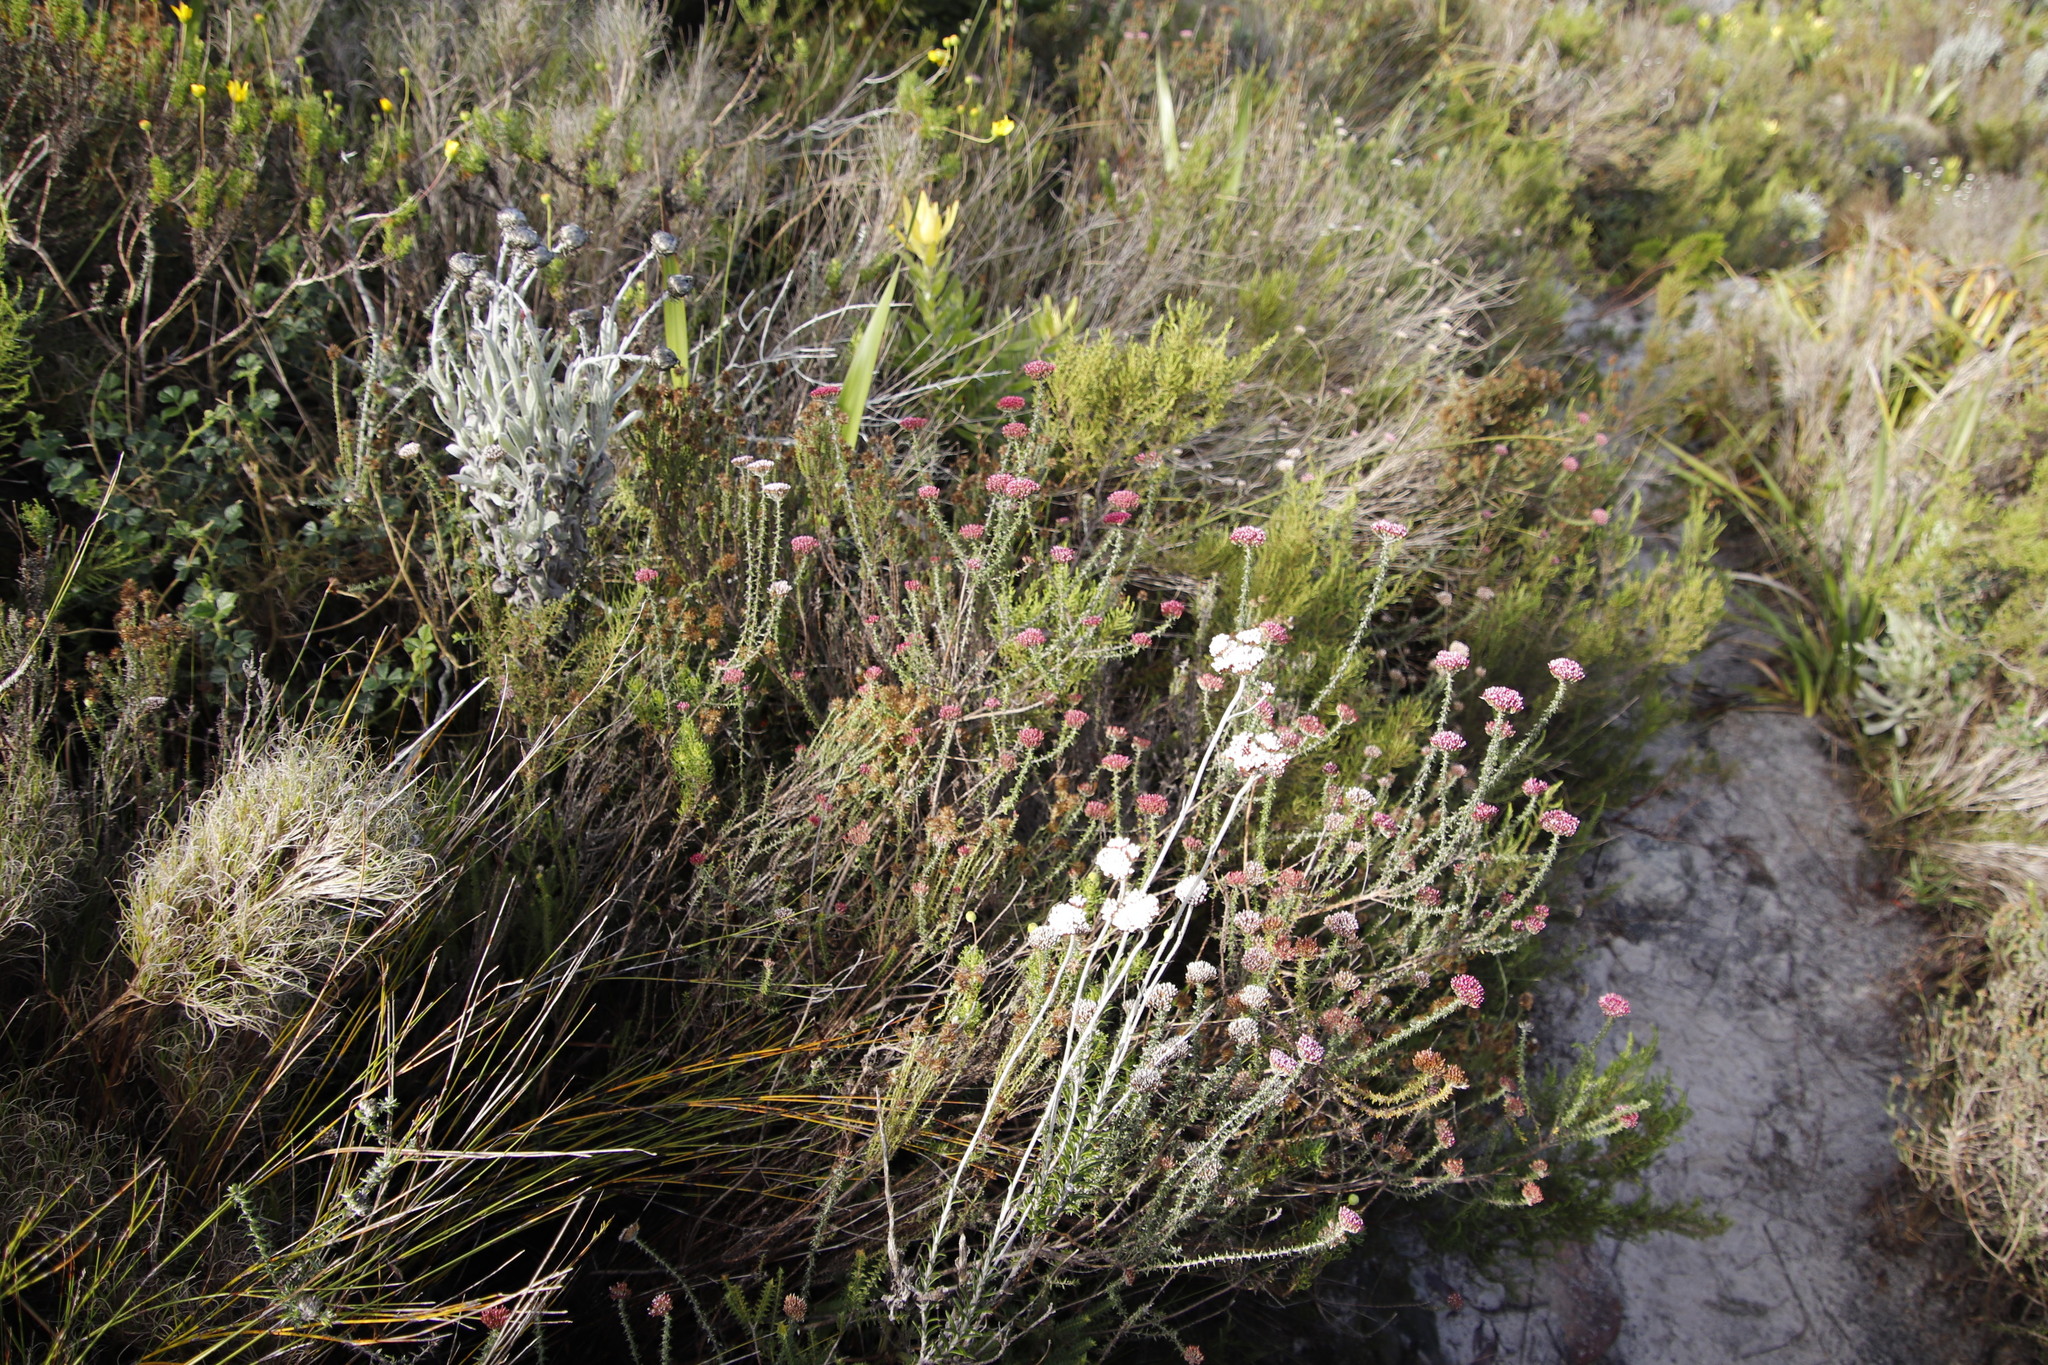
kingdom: Plantae
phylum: Tracheophyta
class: Magnoliopsida
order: Asterales
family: Asteraceae
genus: Metalasia
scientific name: Metalasia densa
